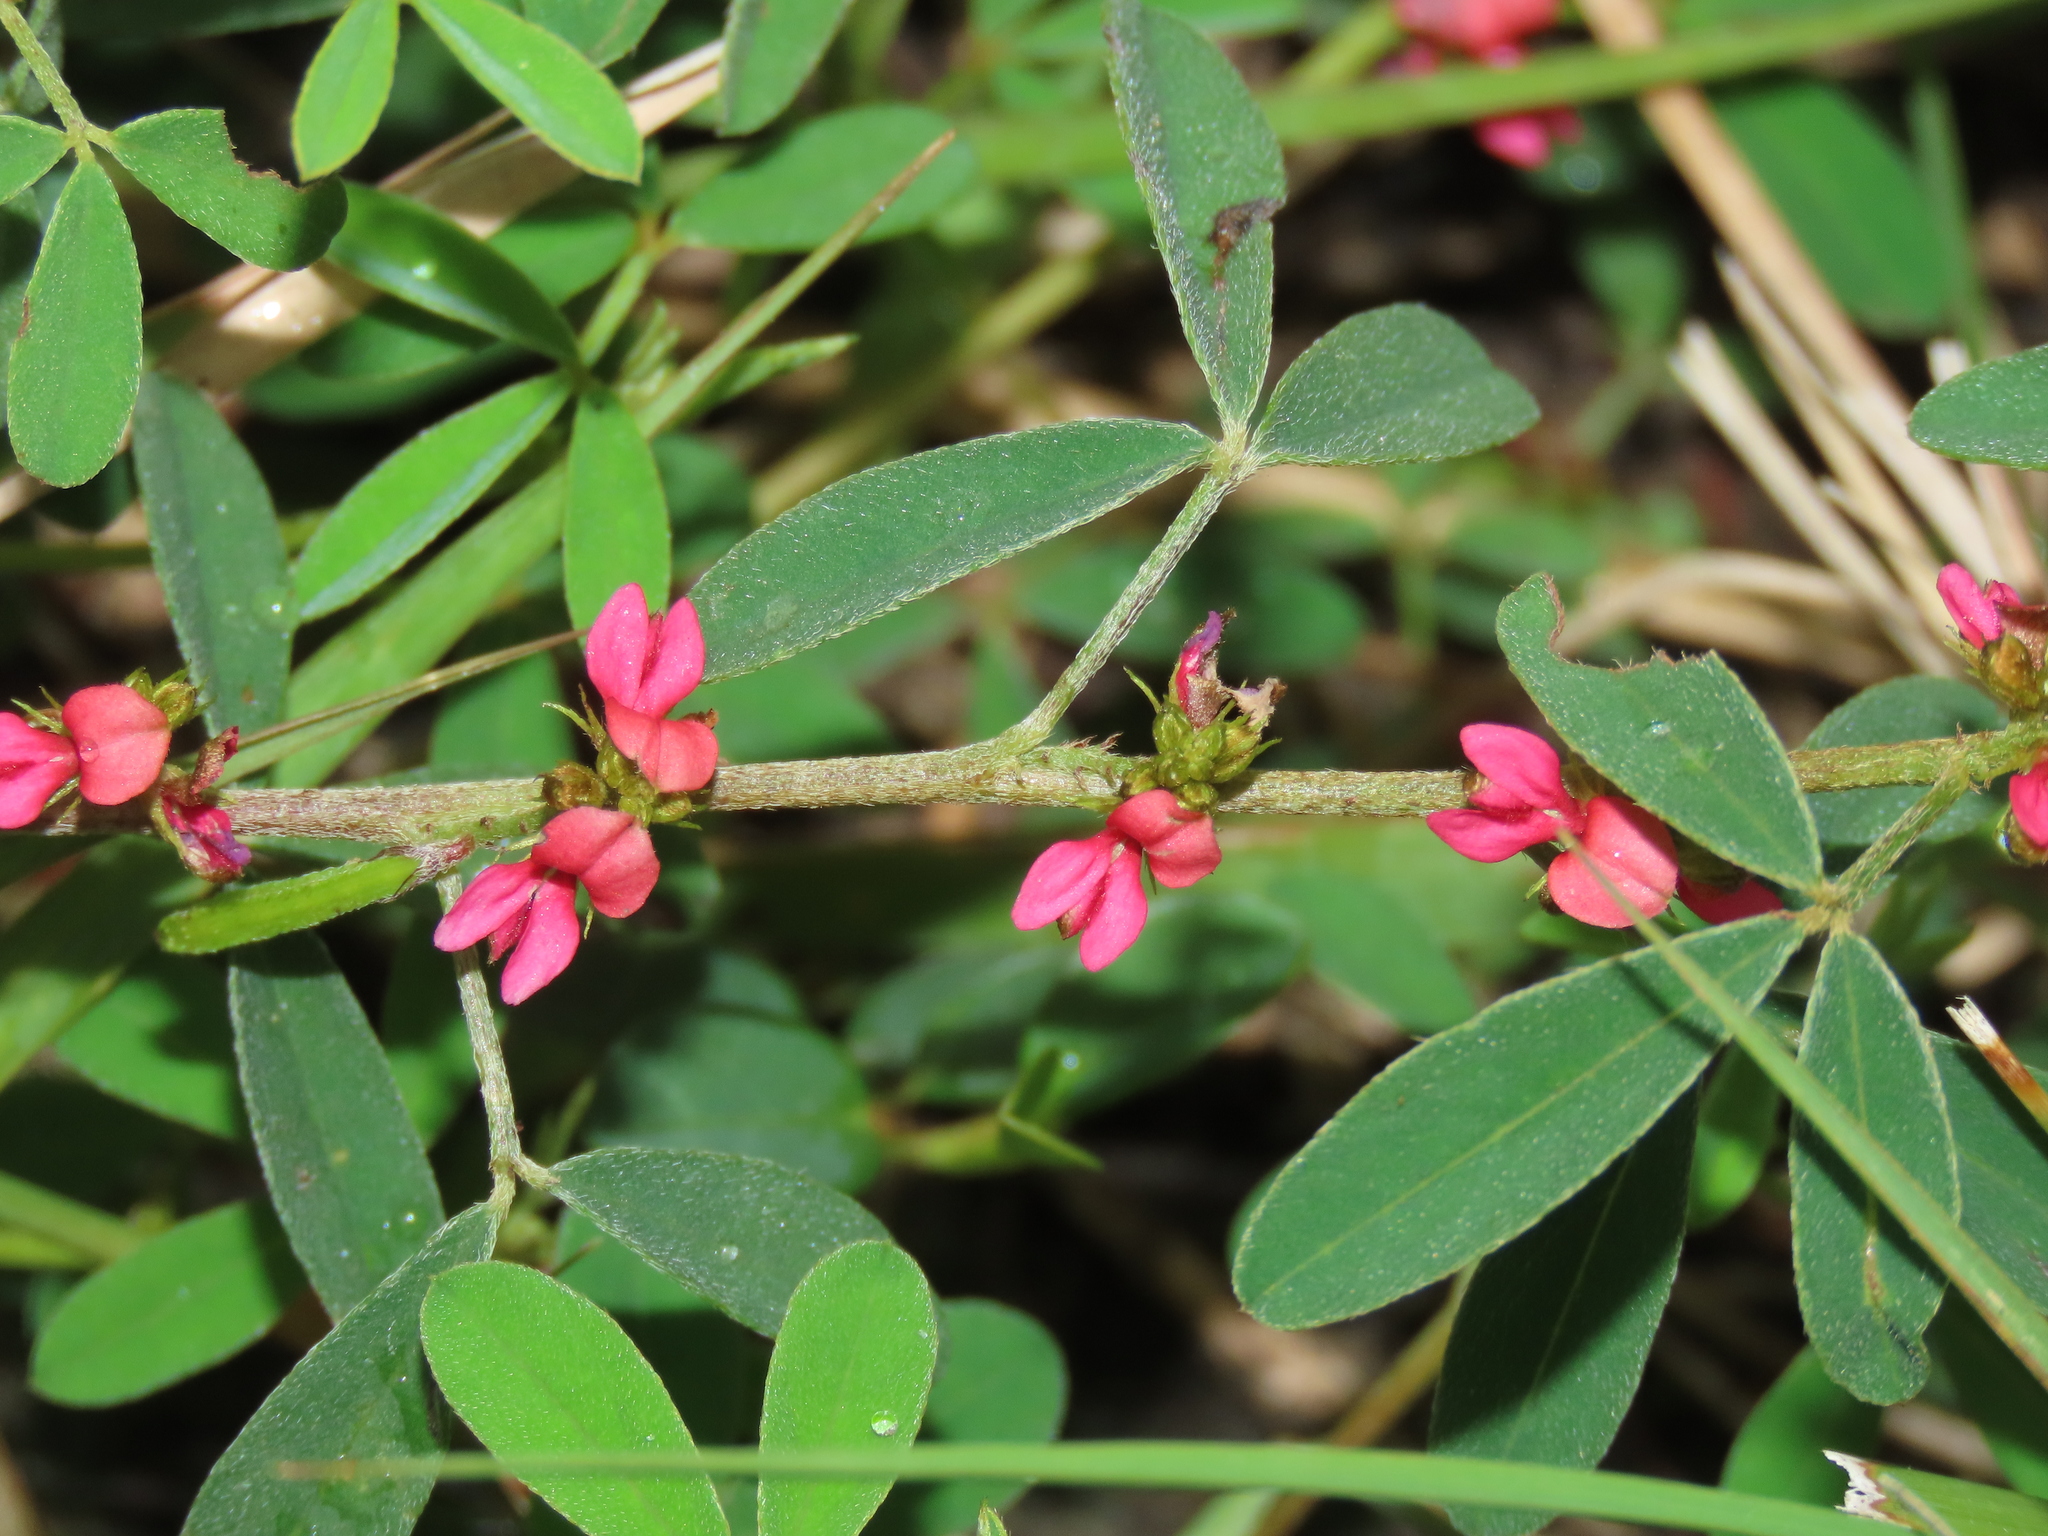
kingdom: Plantae
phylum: Tracheophyta
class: Magnoliopsida
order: Fabales
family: Fabaceae
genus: Indigofera
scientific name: Indigofera trifoliata
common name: Threeleaf indigo
